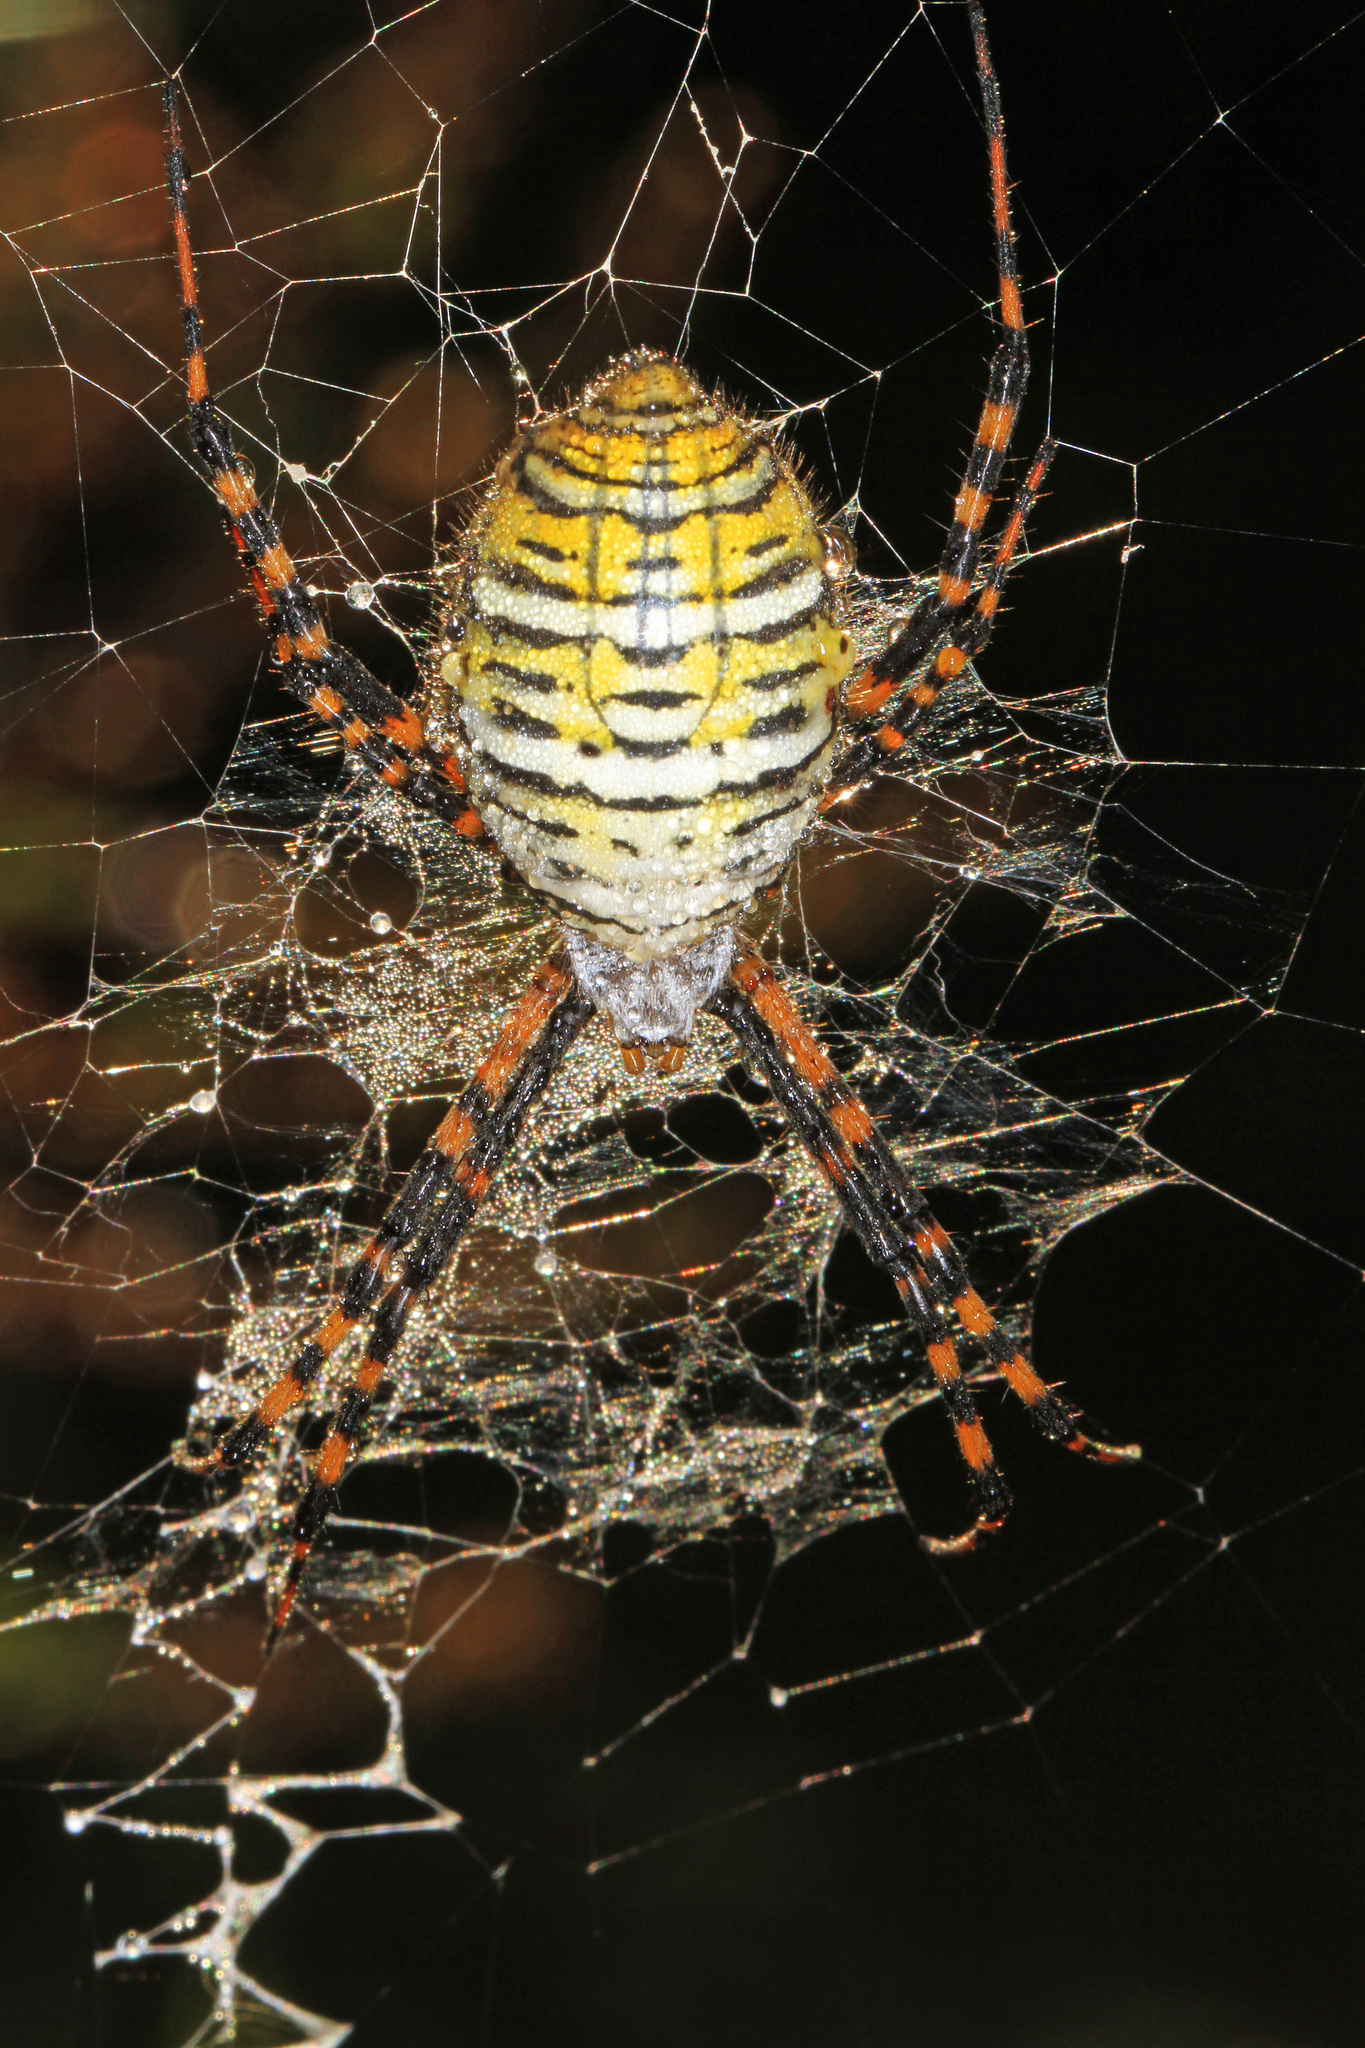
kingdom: Animalia
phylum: Arthropoda
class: Arachnida
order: Araneae
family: Araneidae
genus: Argiope
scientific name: Argiope trifasciata
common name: Banded garden spider
